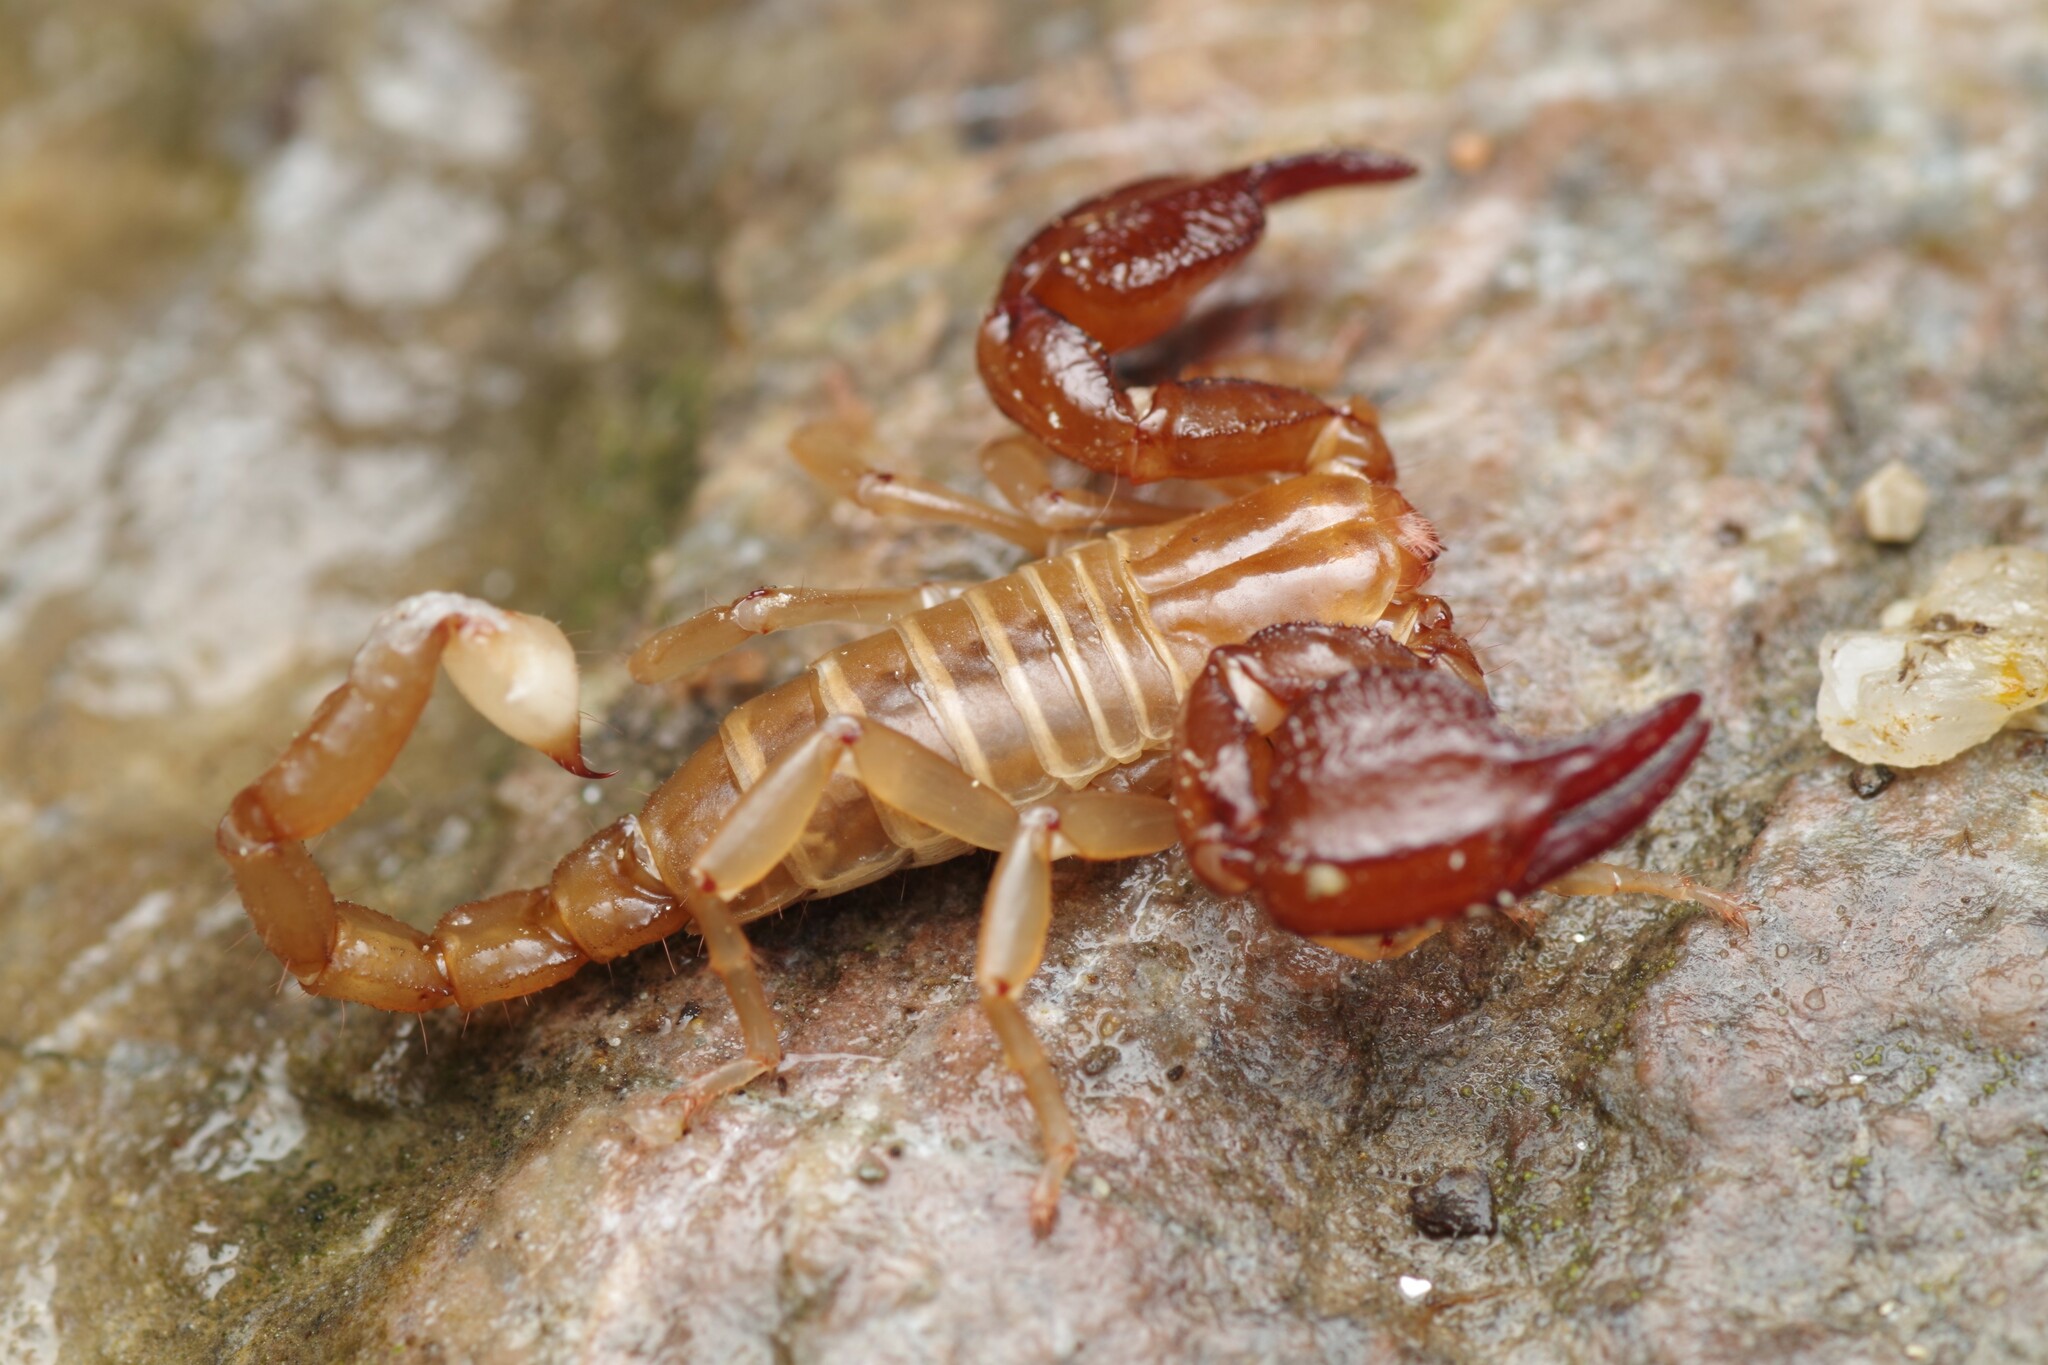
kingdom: Animalia
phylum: Arthropoda
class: Arachnida
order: Scorpiones
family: Belisariidae
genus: Belisarius
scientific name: Belisarius xambeui
